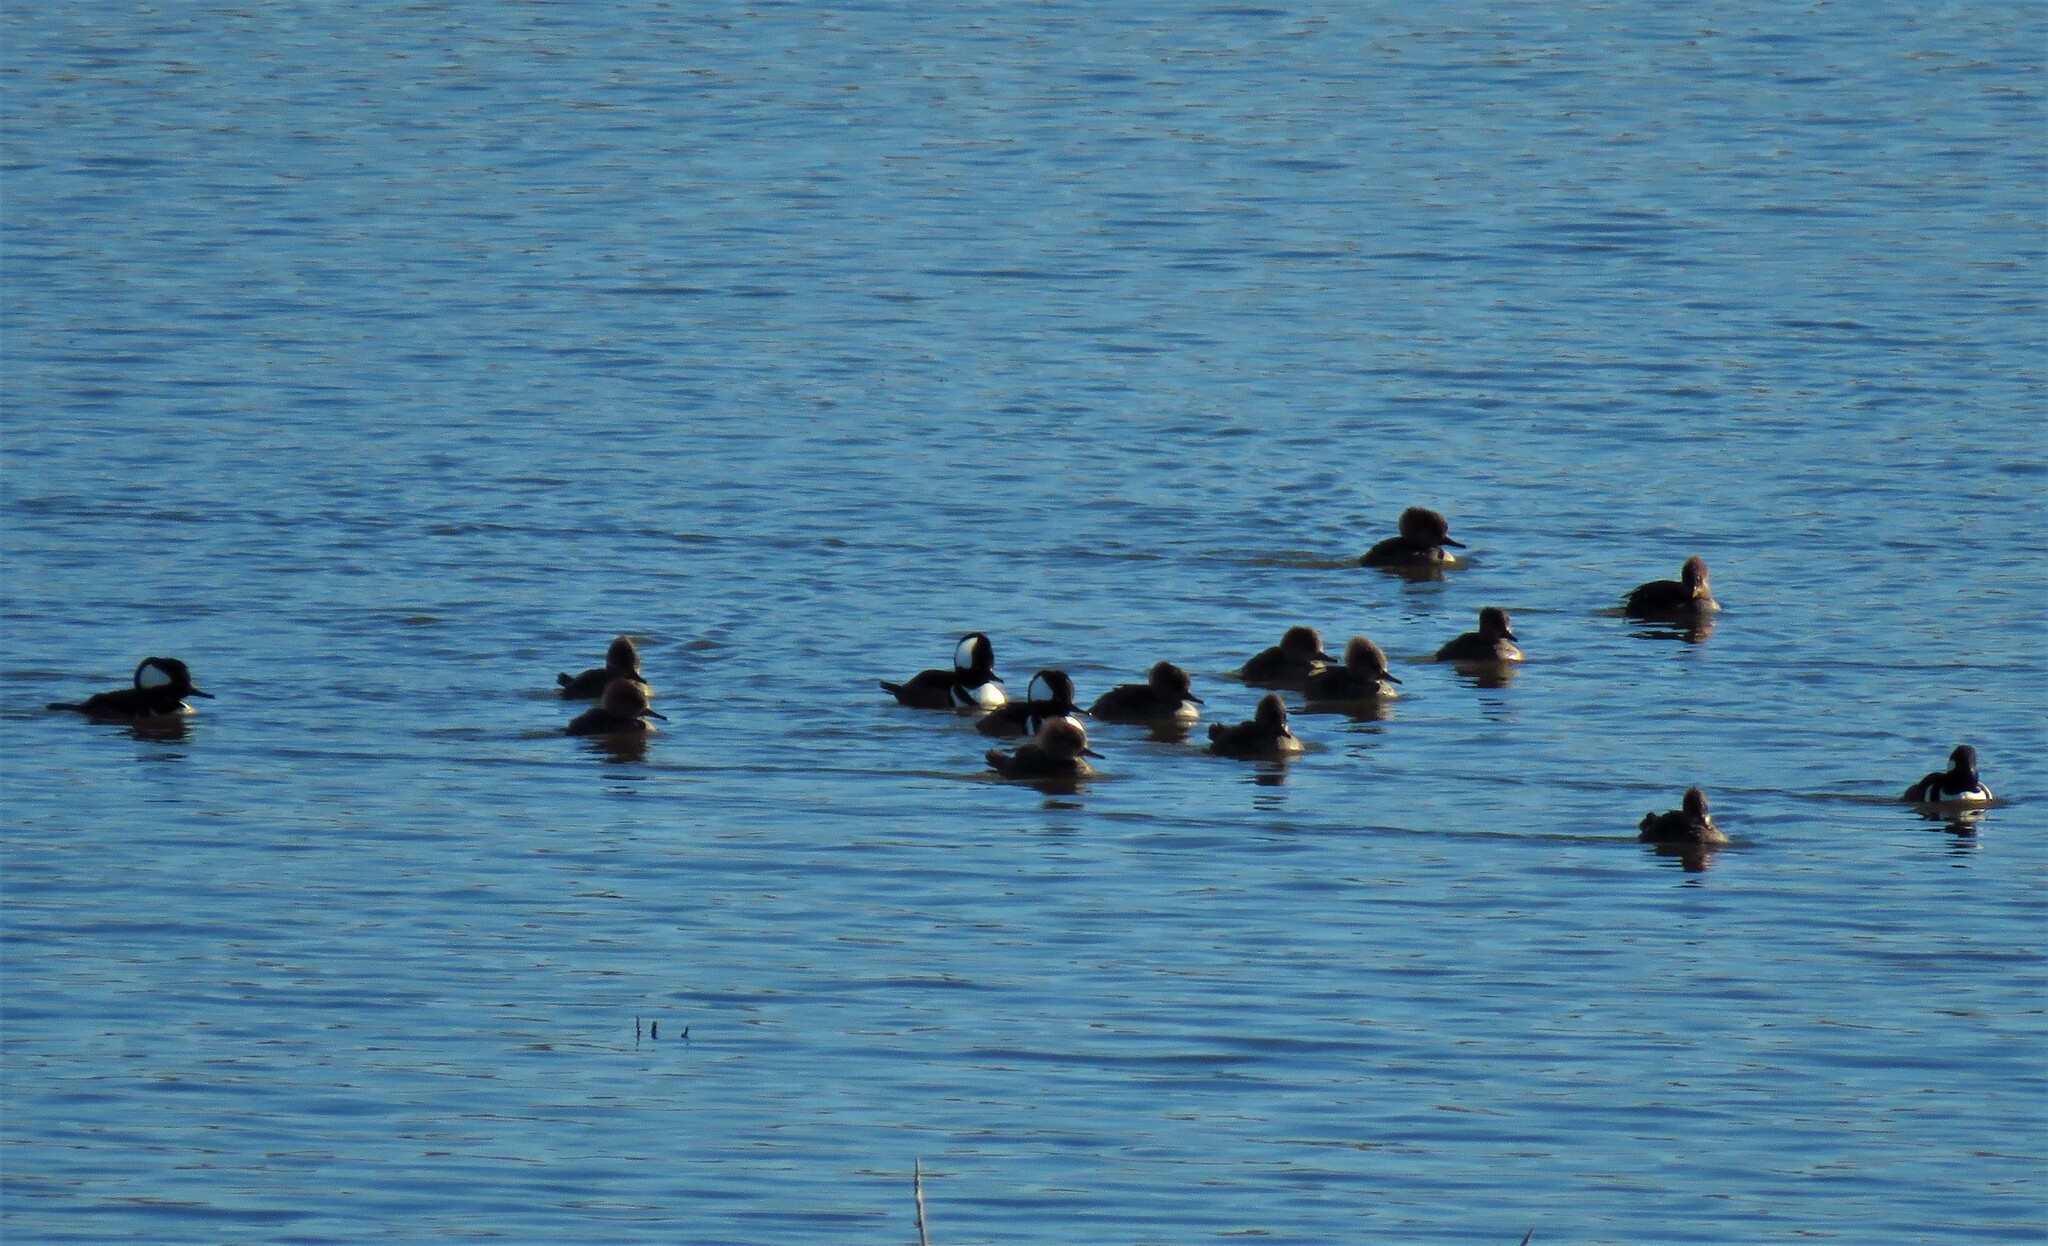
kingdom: Animalia
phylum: Chordata
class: Aves
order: Anseriformes
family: Anatidae
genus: Lophodytes
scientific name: Lophodytes cucullatus
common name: Hooded merganser
